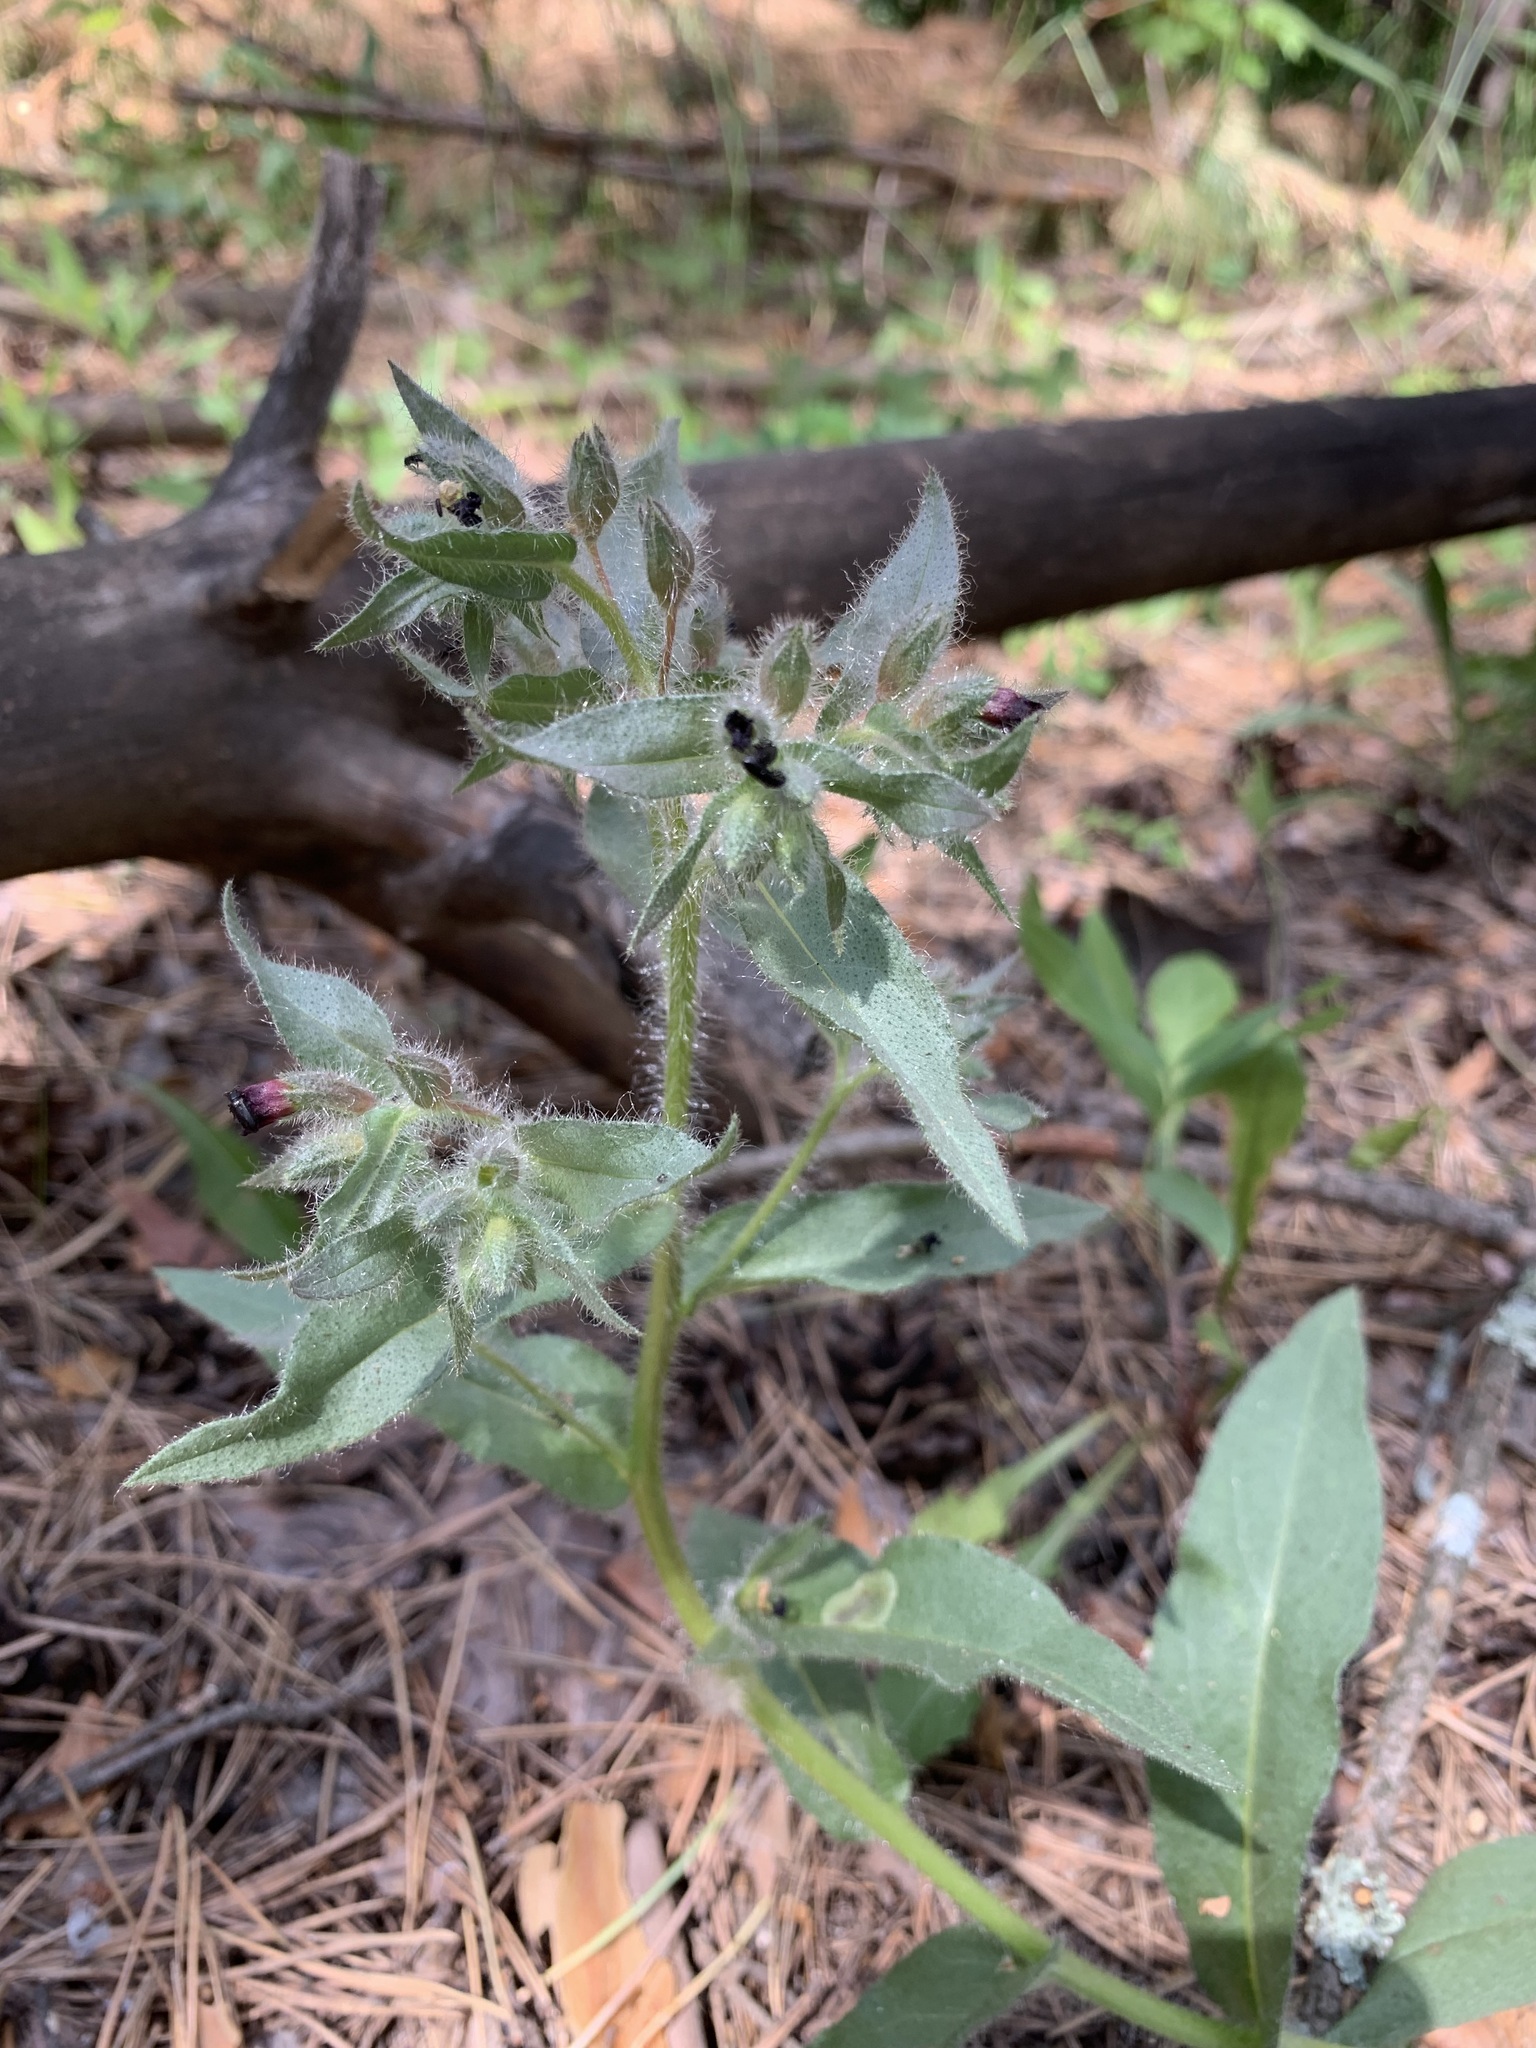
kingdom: Plantae
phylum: Tracheophyta
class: Magnoliopsida
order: Boraginales
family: Boraginaceae
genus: Nonea
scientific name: Nonea pulla
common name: Brown nonea
